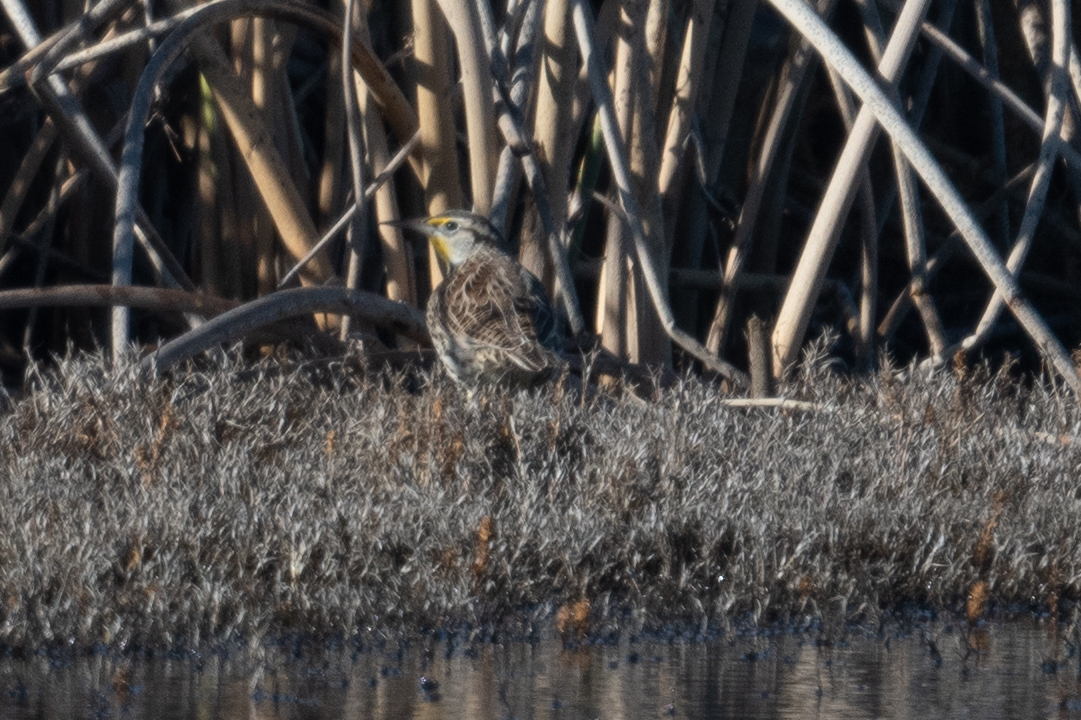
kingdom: Animalia
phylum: Chordata
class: Aves
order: Passeriformes
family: Icteridae
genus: Sturnella
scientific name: Sturnella neglecta
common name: Western meadowlark
